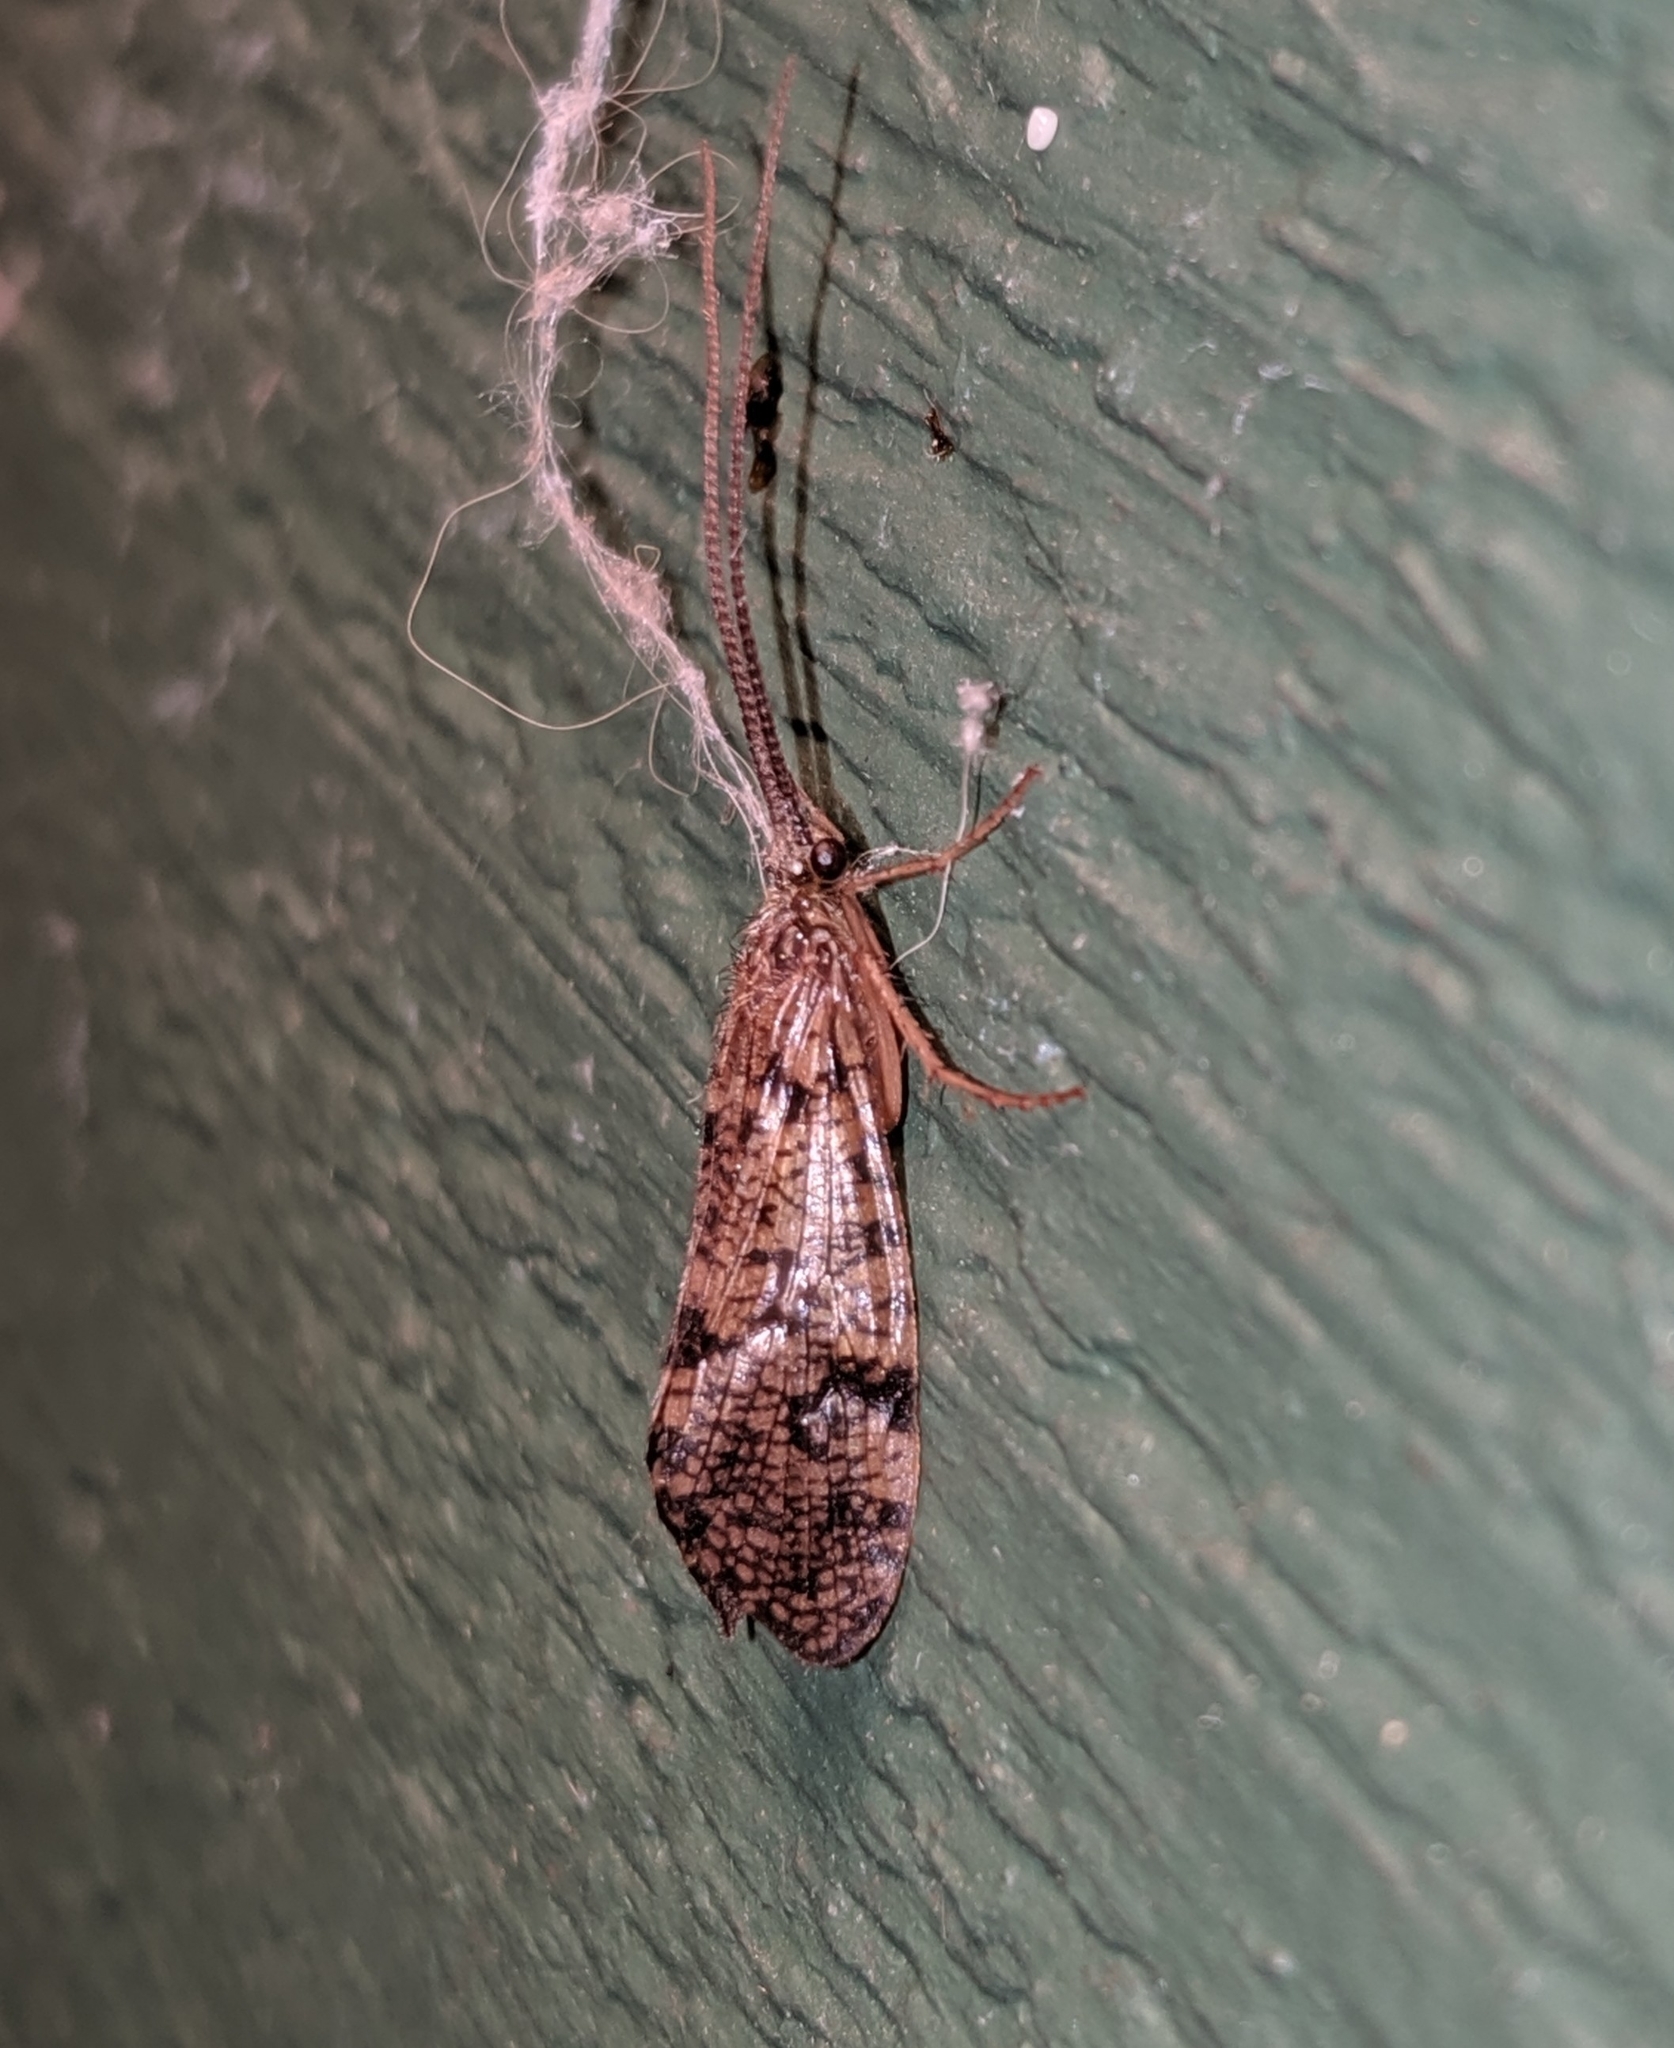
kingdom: Animalia
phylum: Arthropoda
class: Insecta
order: Trichoptera
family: Phryganeidae
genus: Banksiola
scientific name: Banksiola crotchi
